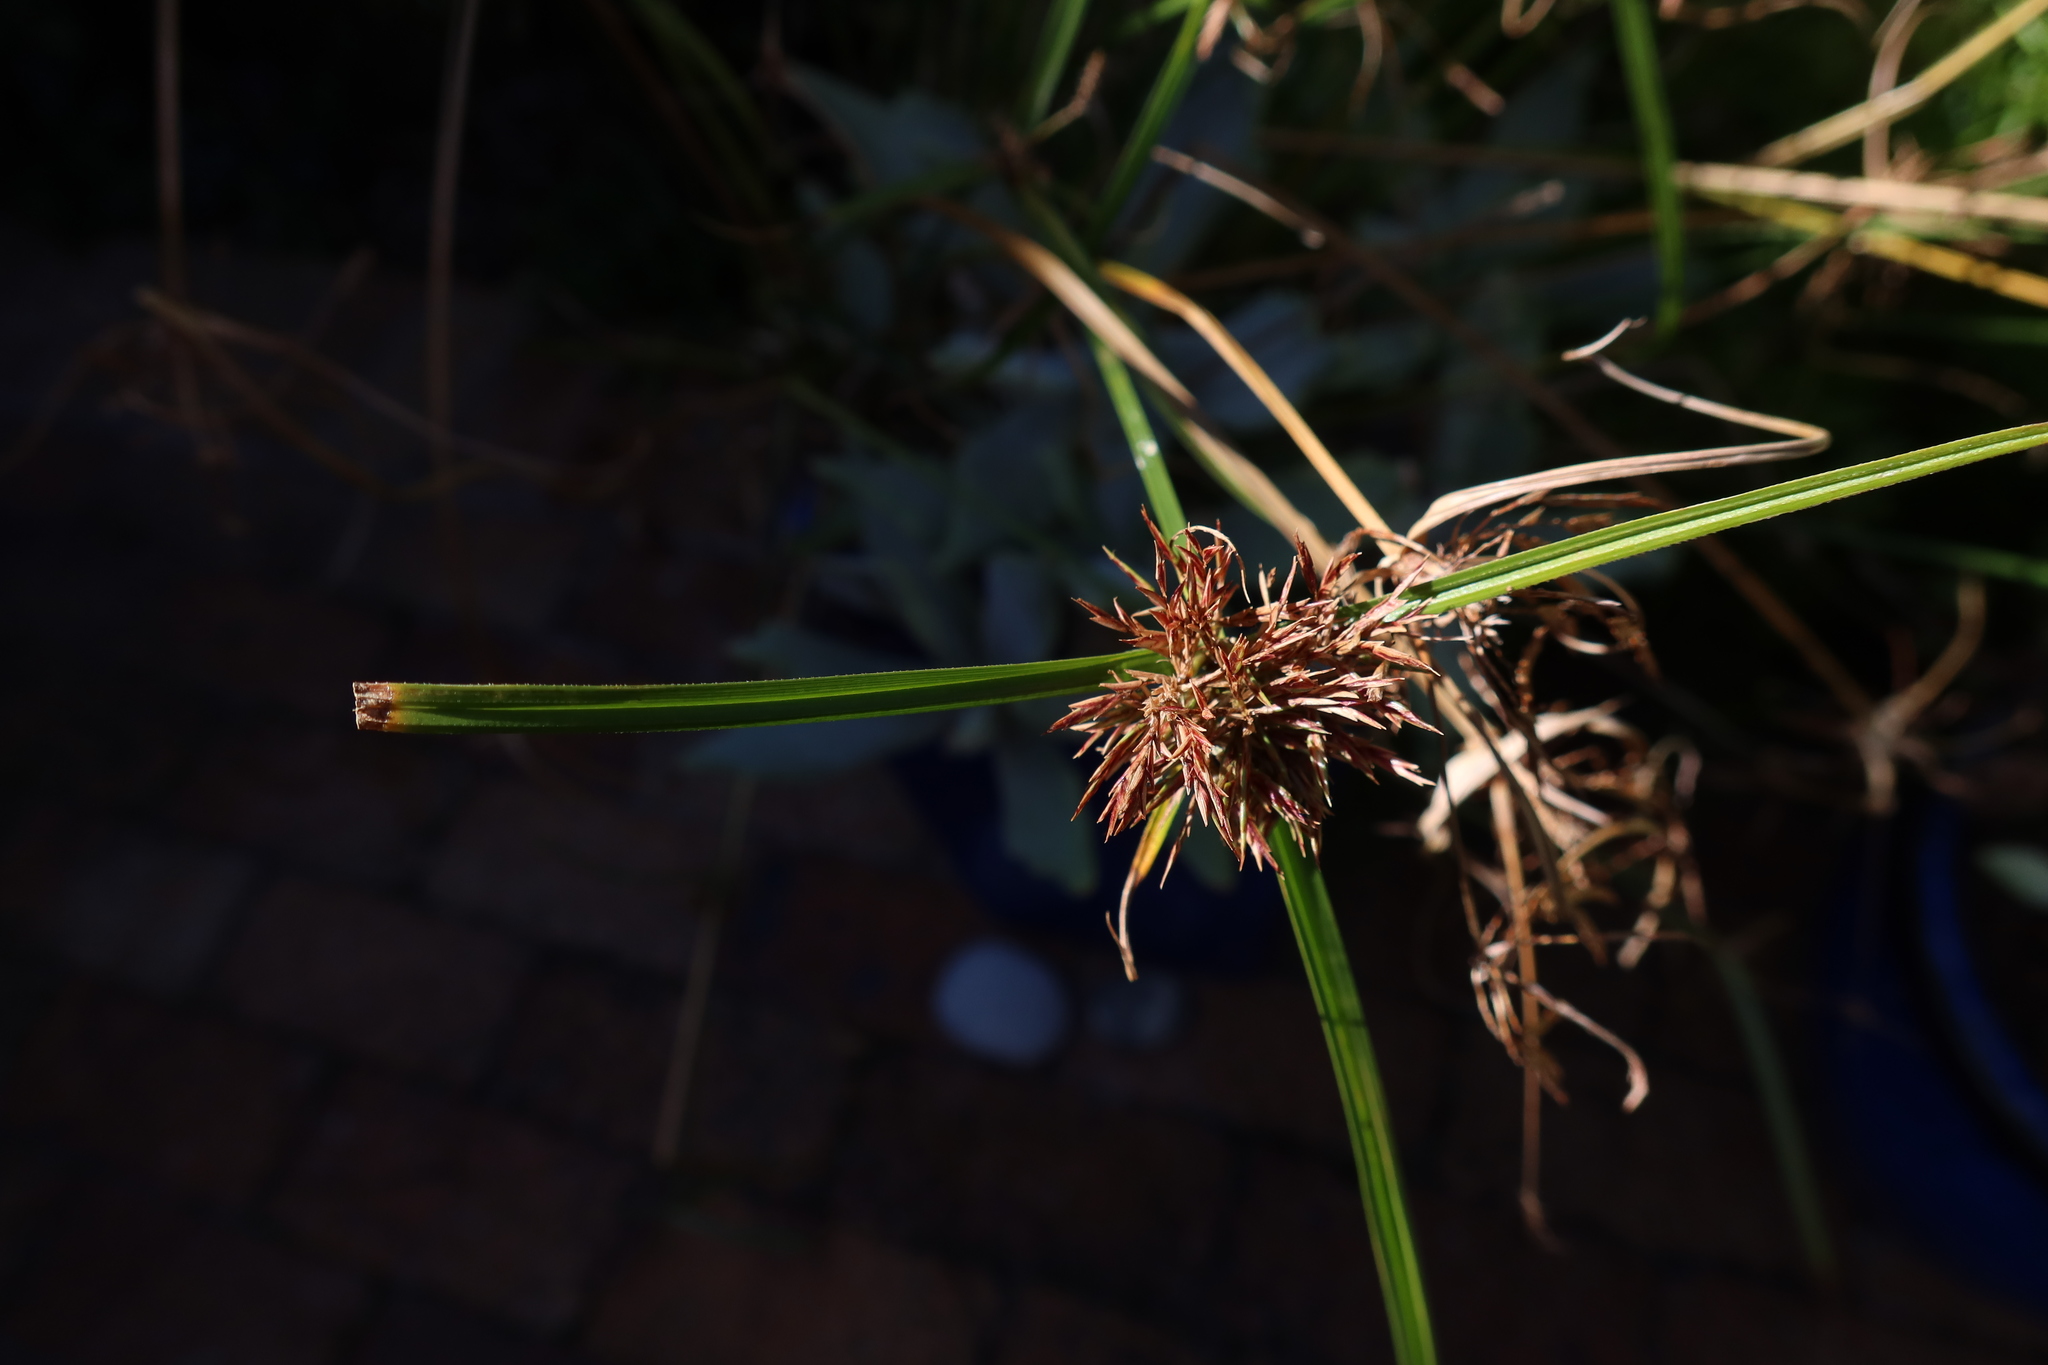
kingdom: Plantae
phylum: Tracheophyta
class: Liliopsida
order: Poales
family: Cyperaceae
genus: Cyperus
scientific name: Cyperus congestus
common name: Dense flat sedge
